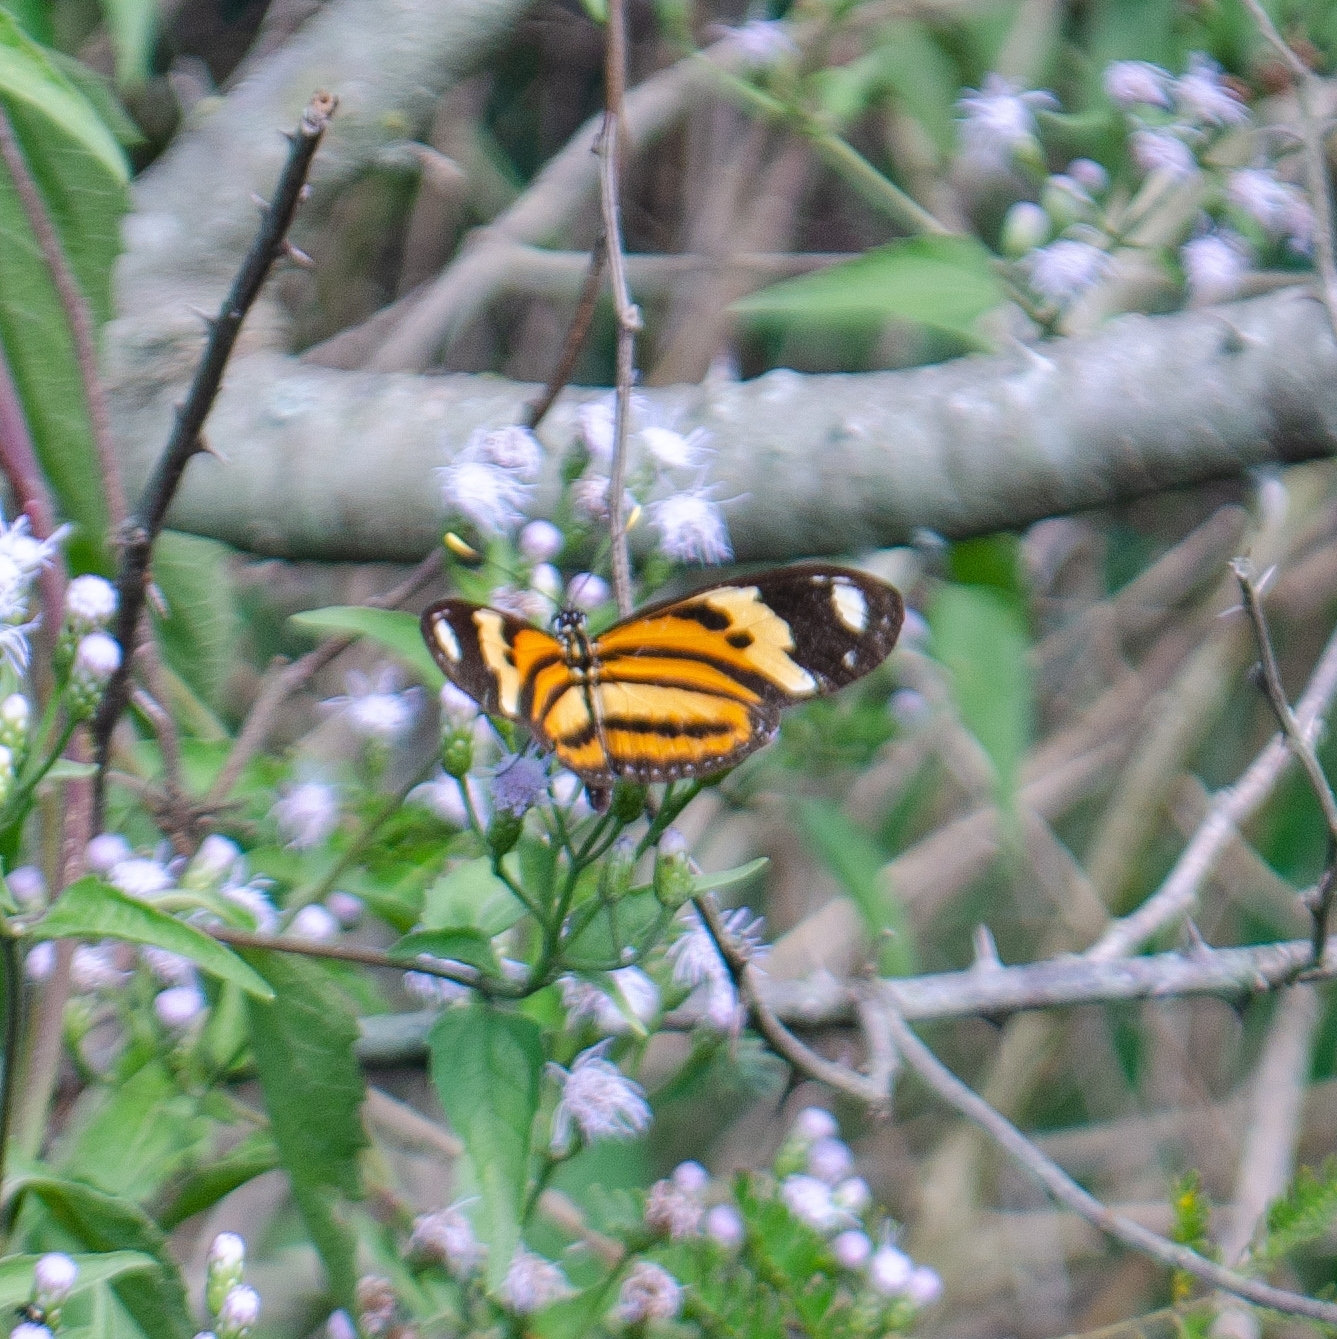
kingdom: Animalia
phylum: Arthropoda
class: Insecta
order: Lepidoptera
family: Nymphalidae
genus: Eueides
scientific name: Eueides isabella
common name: Isabella's longwing
